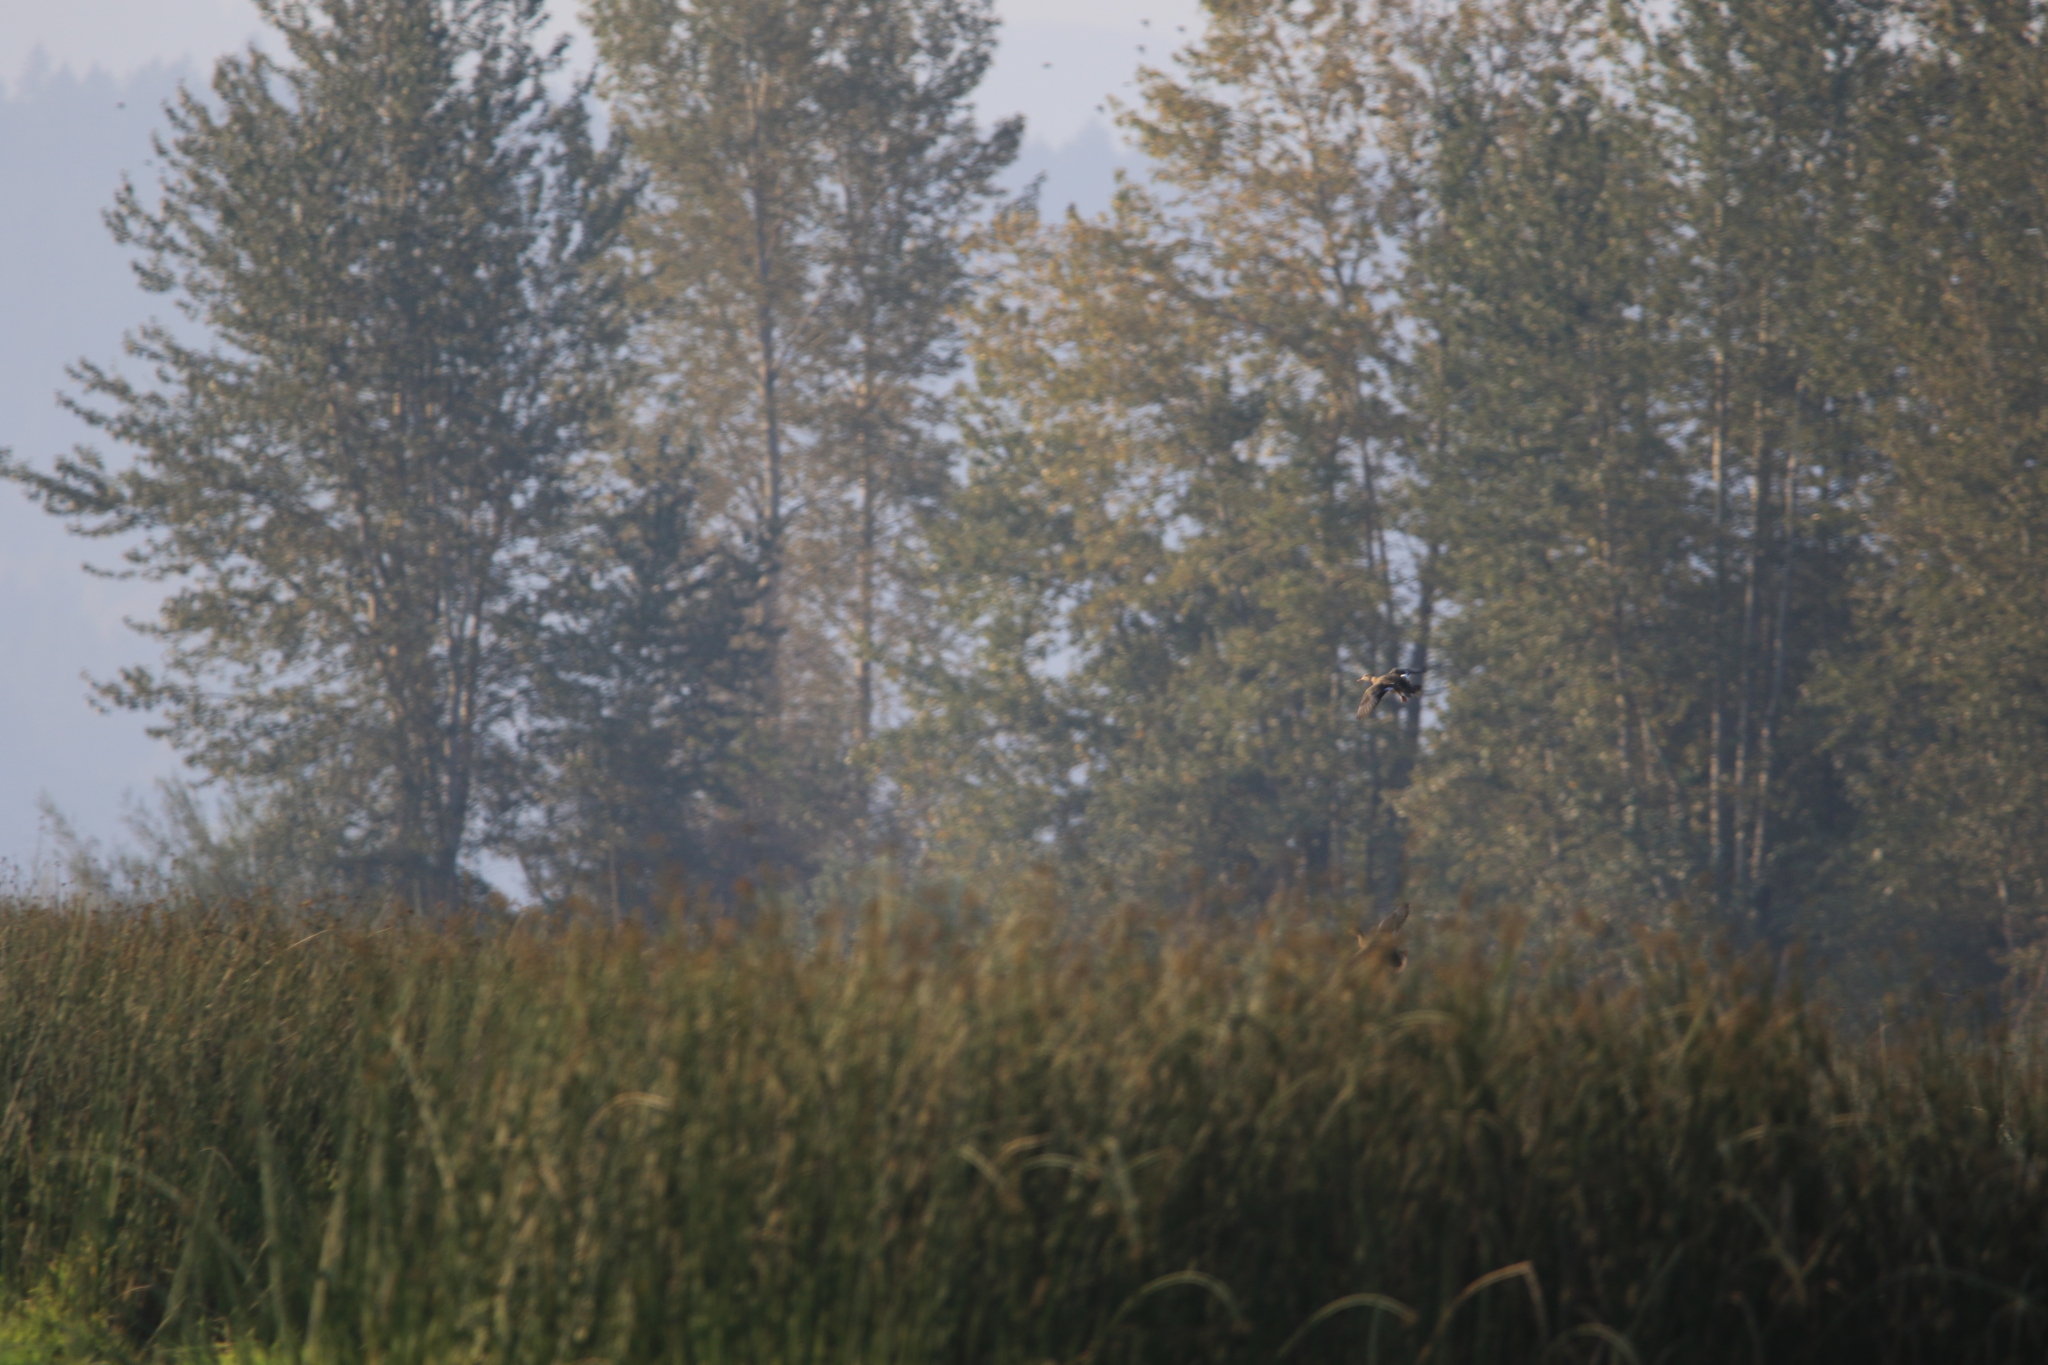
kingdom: Animalia
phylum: Chordata
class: Aves
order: Anseriformes
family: Anatidae
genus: Mareca
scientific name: Mareca strepera
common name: Gadwall
